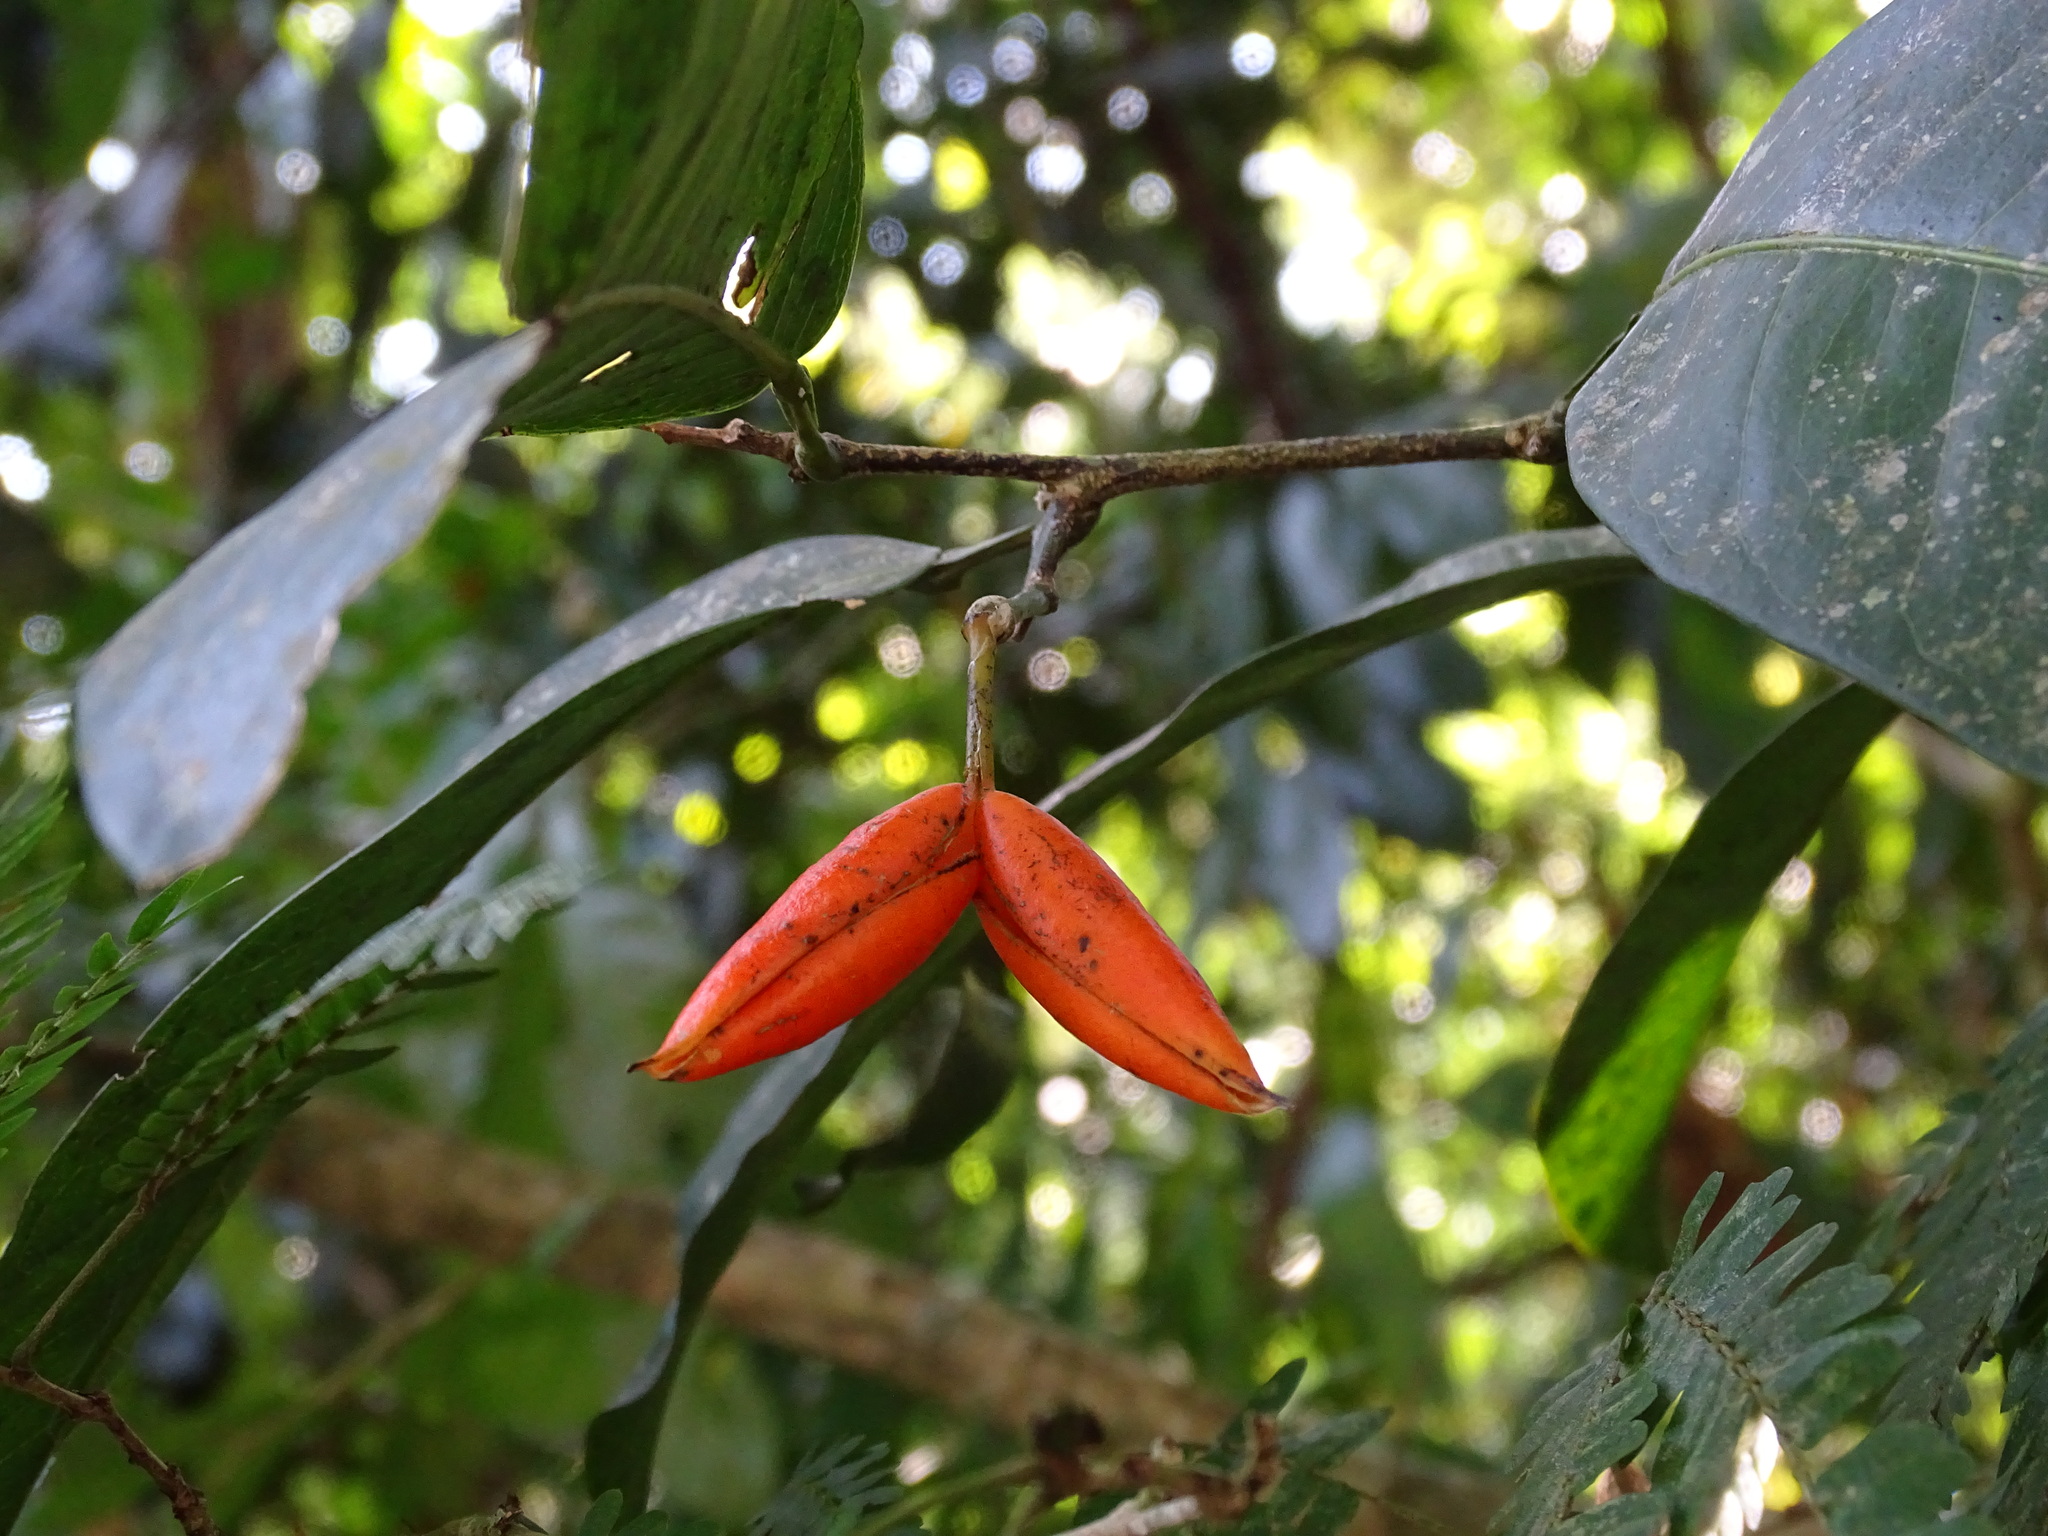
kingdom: Plantae
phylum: Tracheophyta
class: Magnoliopsida
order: Fabales
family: Fabaceae
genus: Swartzia
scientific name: Swartzia guatemalensis
